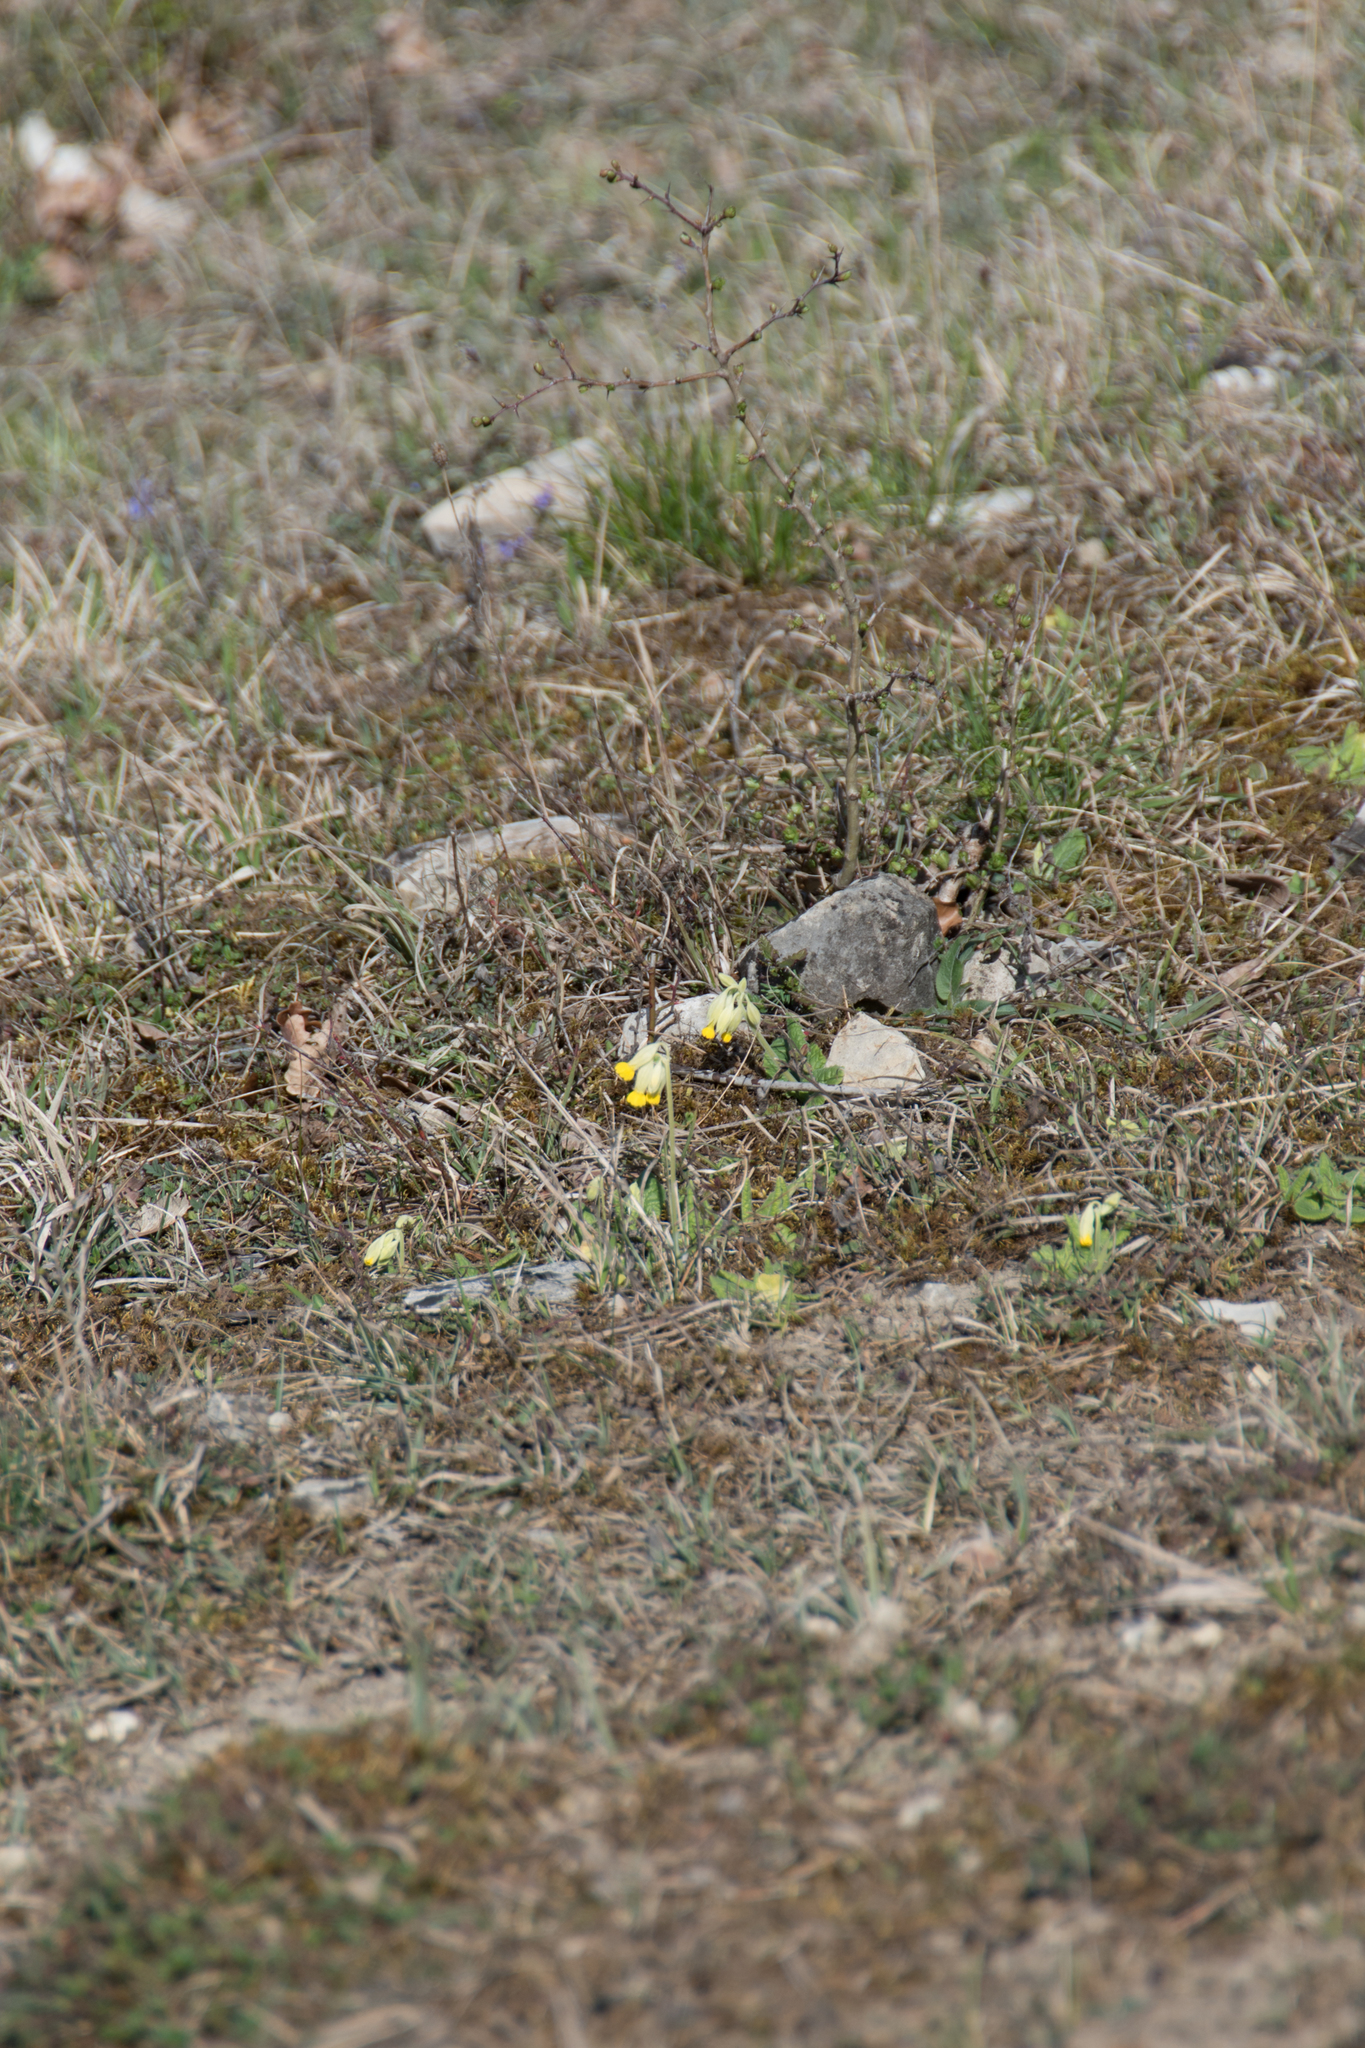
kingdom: Plantae
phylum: Tracheophyta
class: Magnoliopsida
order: Ericales
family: Primulaceae
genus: Primula
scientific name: Primula veris
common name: Cowslip
